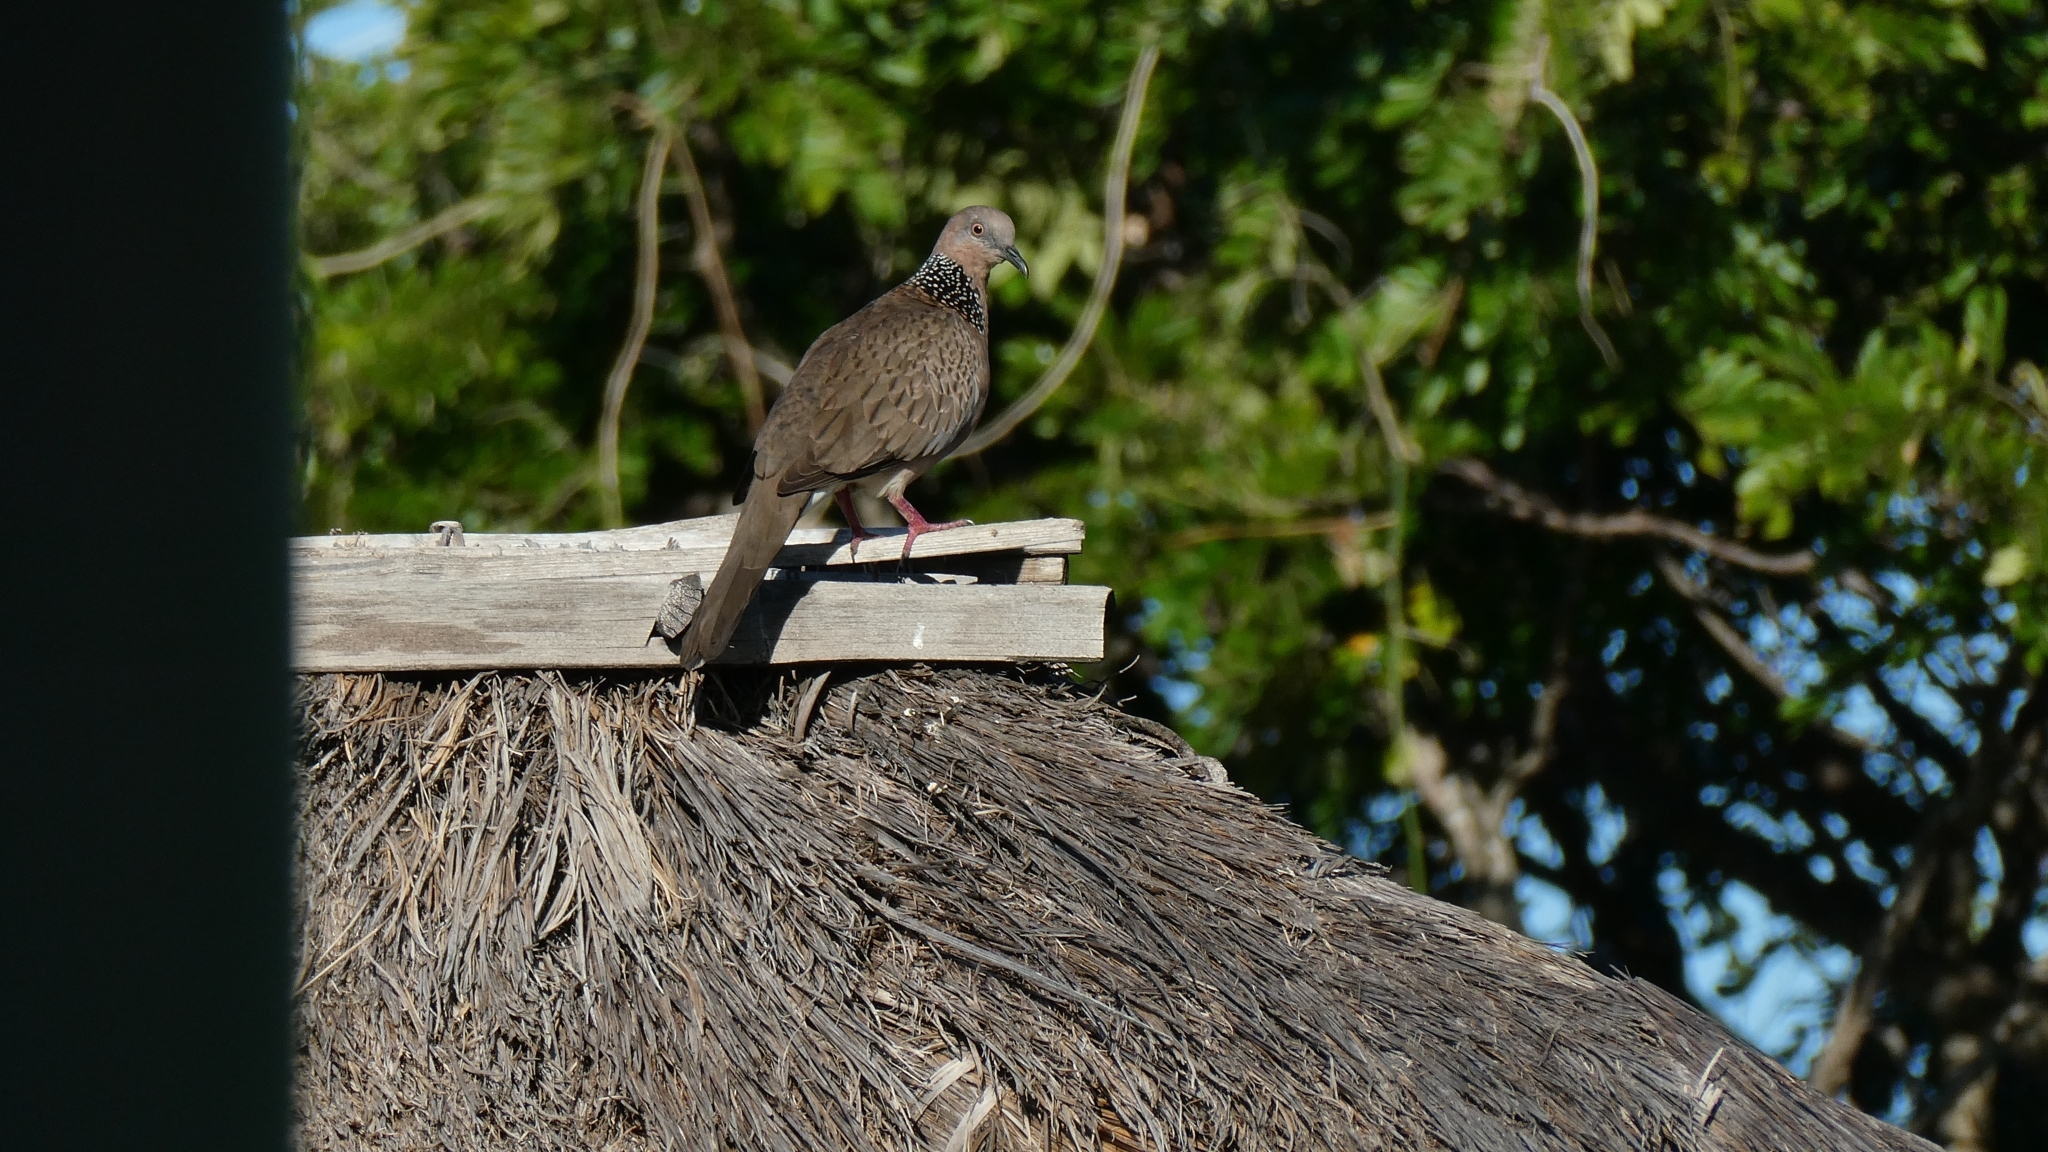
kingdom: Animalia
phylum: Chordata
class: Aves
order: Columbiformes
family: Columbidae
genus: Spilopelia
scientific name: Spilopelia chinensis
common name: Spotted dove
